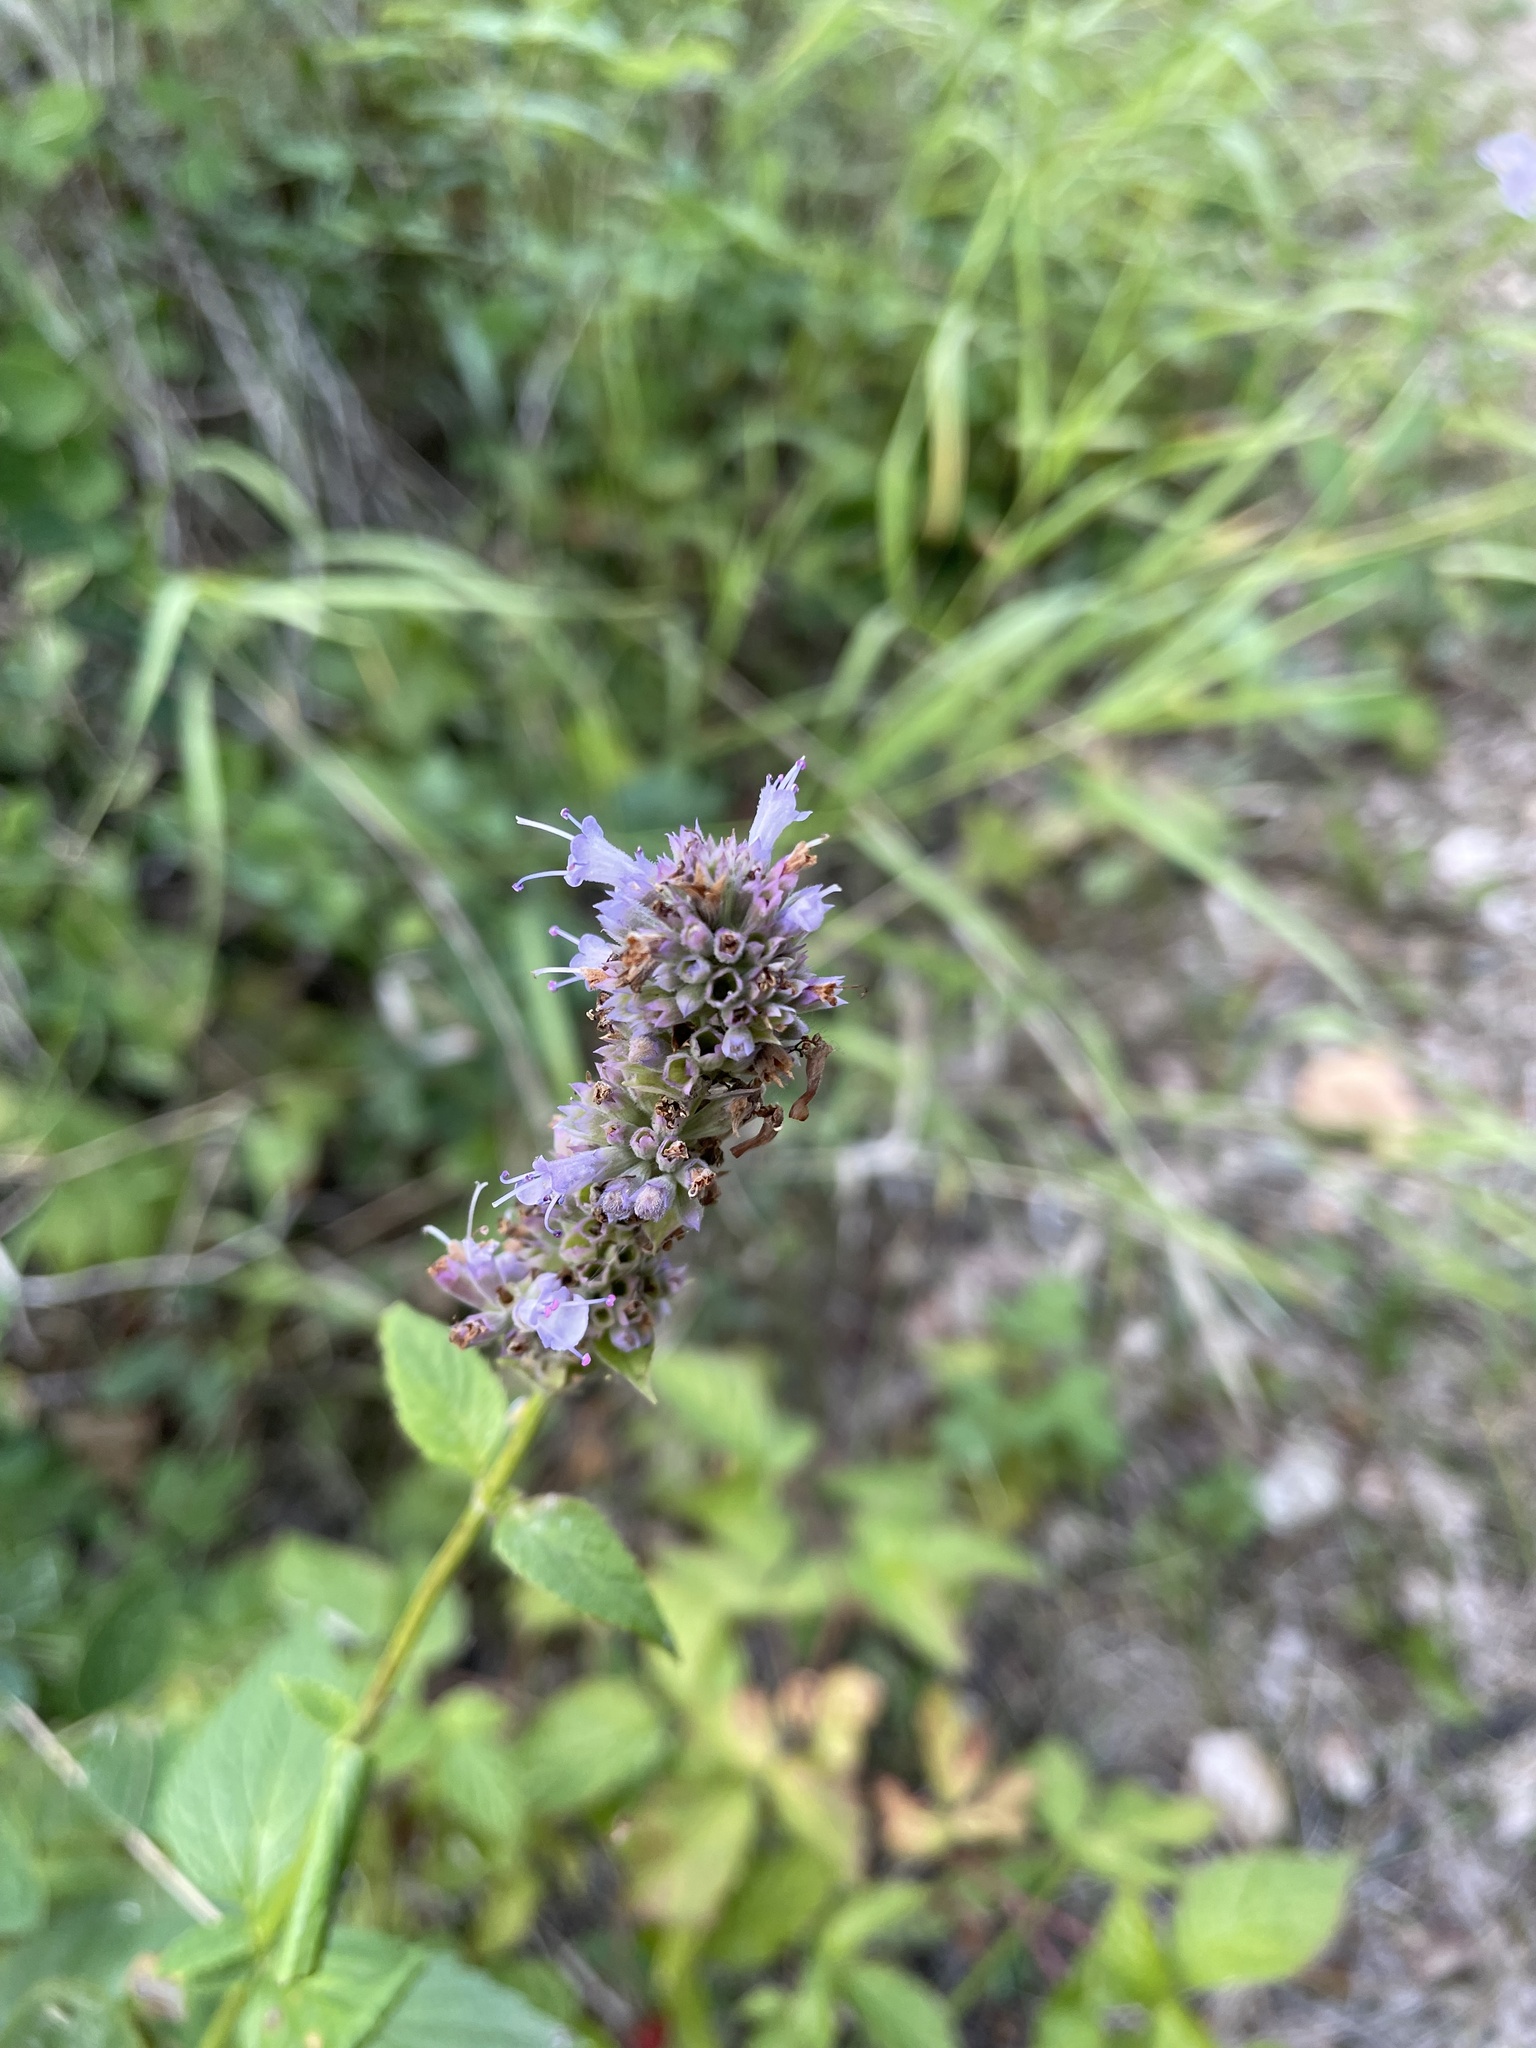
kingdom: Plantae
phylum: Tracheophyta
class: Magnoliopsida
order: Lamiales
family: Lamiaceae
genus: Agastache
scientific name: Agastache foeniculum
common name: Anise hyssop
